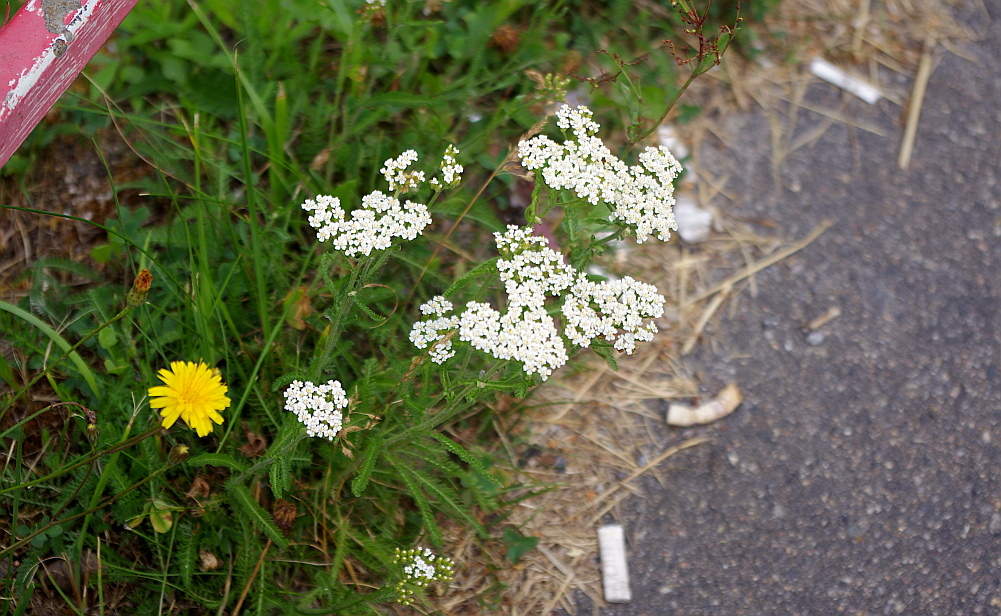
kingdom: Plantae
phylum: Tracheophyta
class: Magnoliopsida
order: Asterales
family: Asteraceae
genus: Achillea
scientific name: Achillea millefolium
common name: Yarrow
